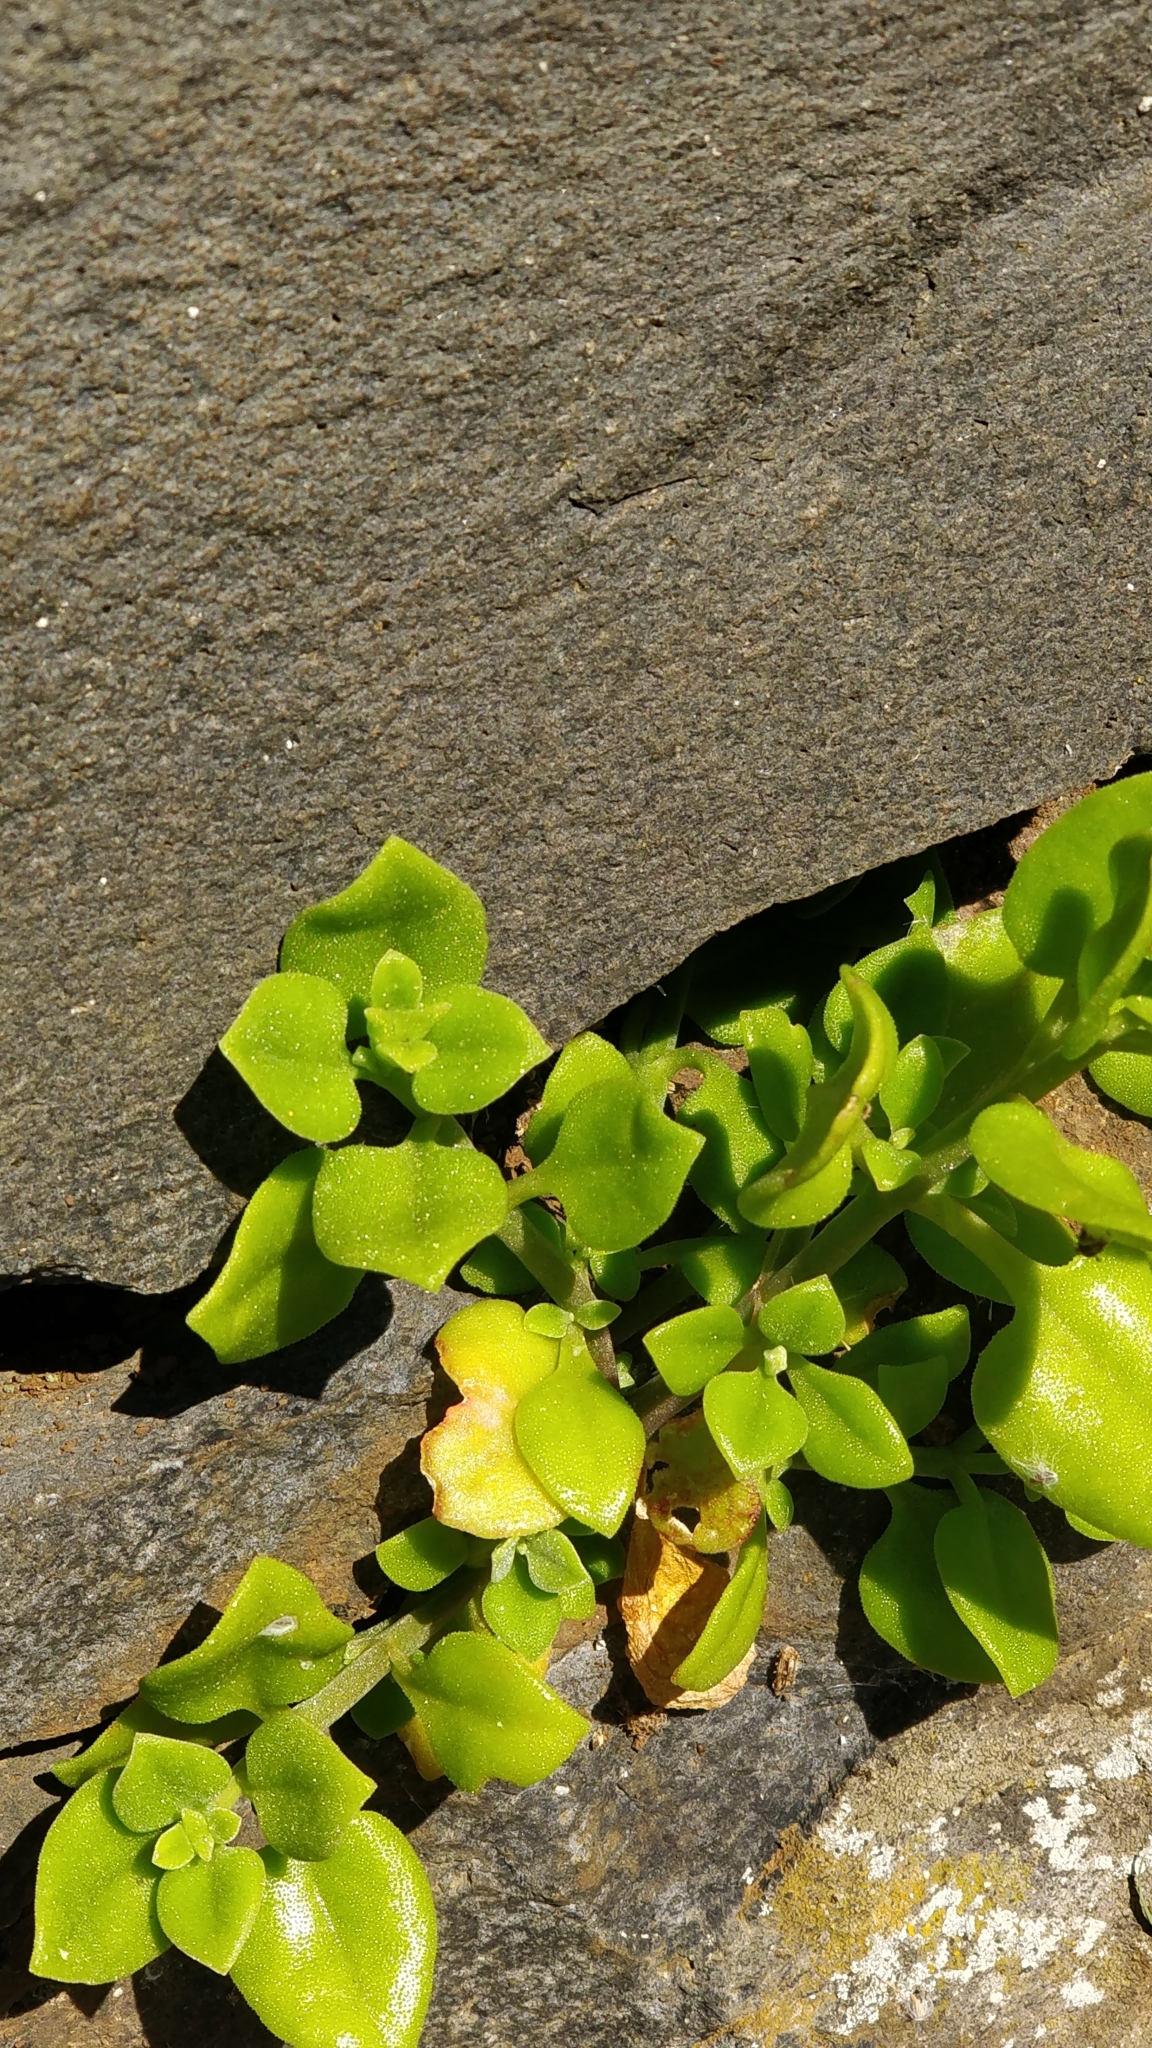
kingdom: Plantae
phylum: Tracheophyta
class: Magnoliopsida
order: Caryophyllales
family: Aizoaceae
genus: Mesembryanthemum
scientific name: Mesembryanthemum cordifolium
